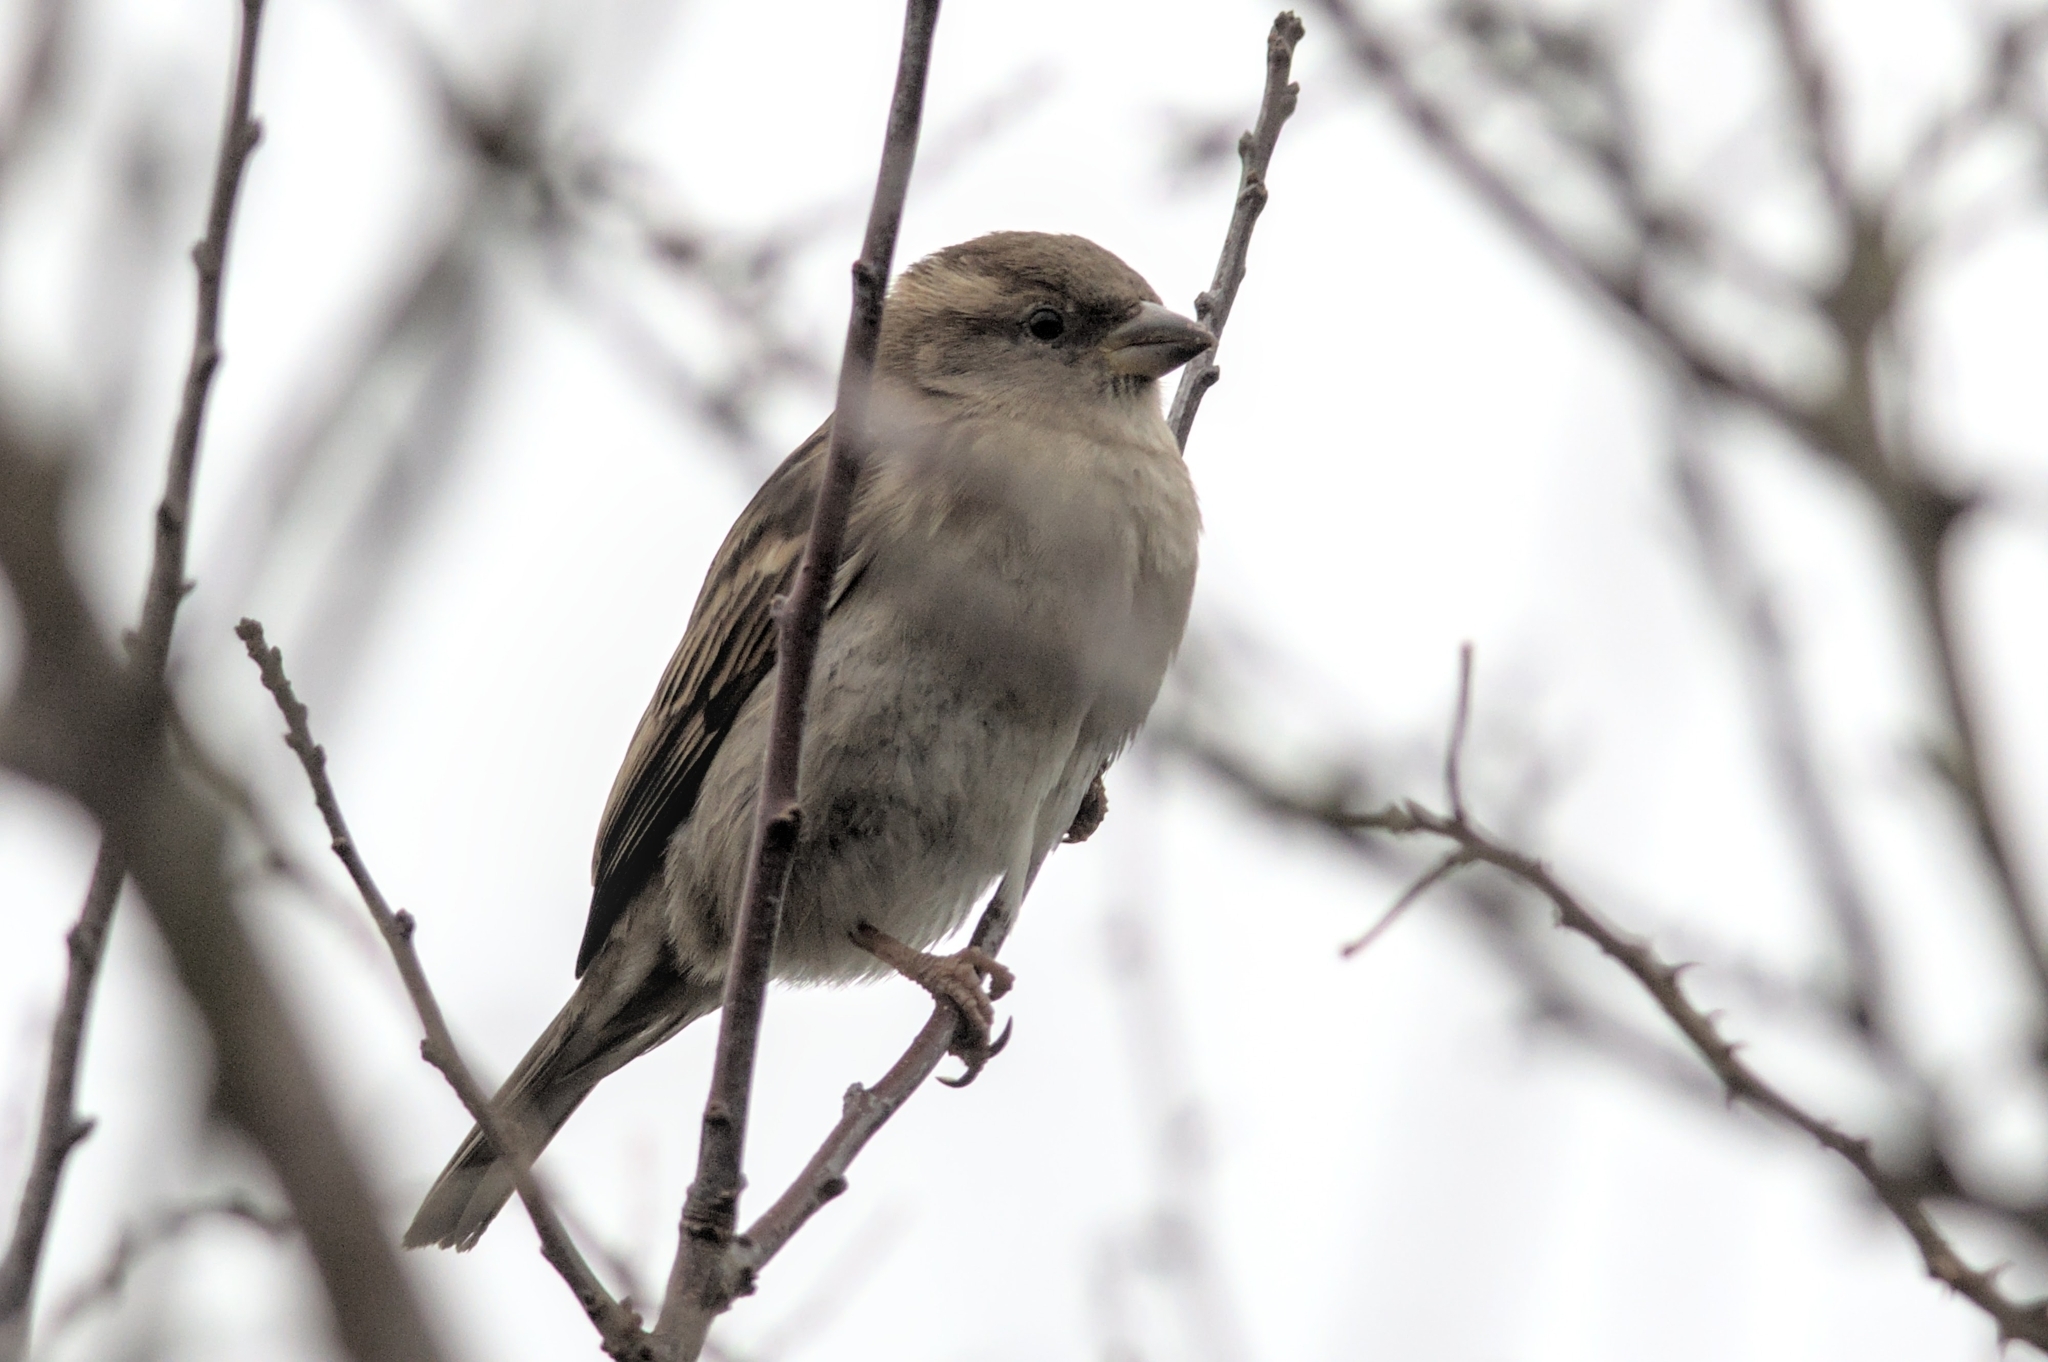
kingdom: Animalia
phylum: Chordata
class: Aves
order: Passeriformes
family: Passeridae
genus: Passer
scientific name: Passer domesticus
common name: House sparrow
